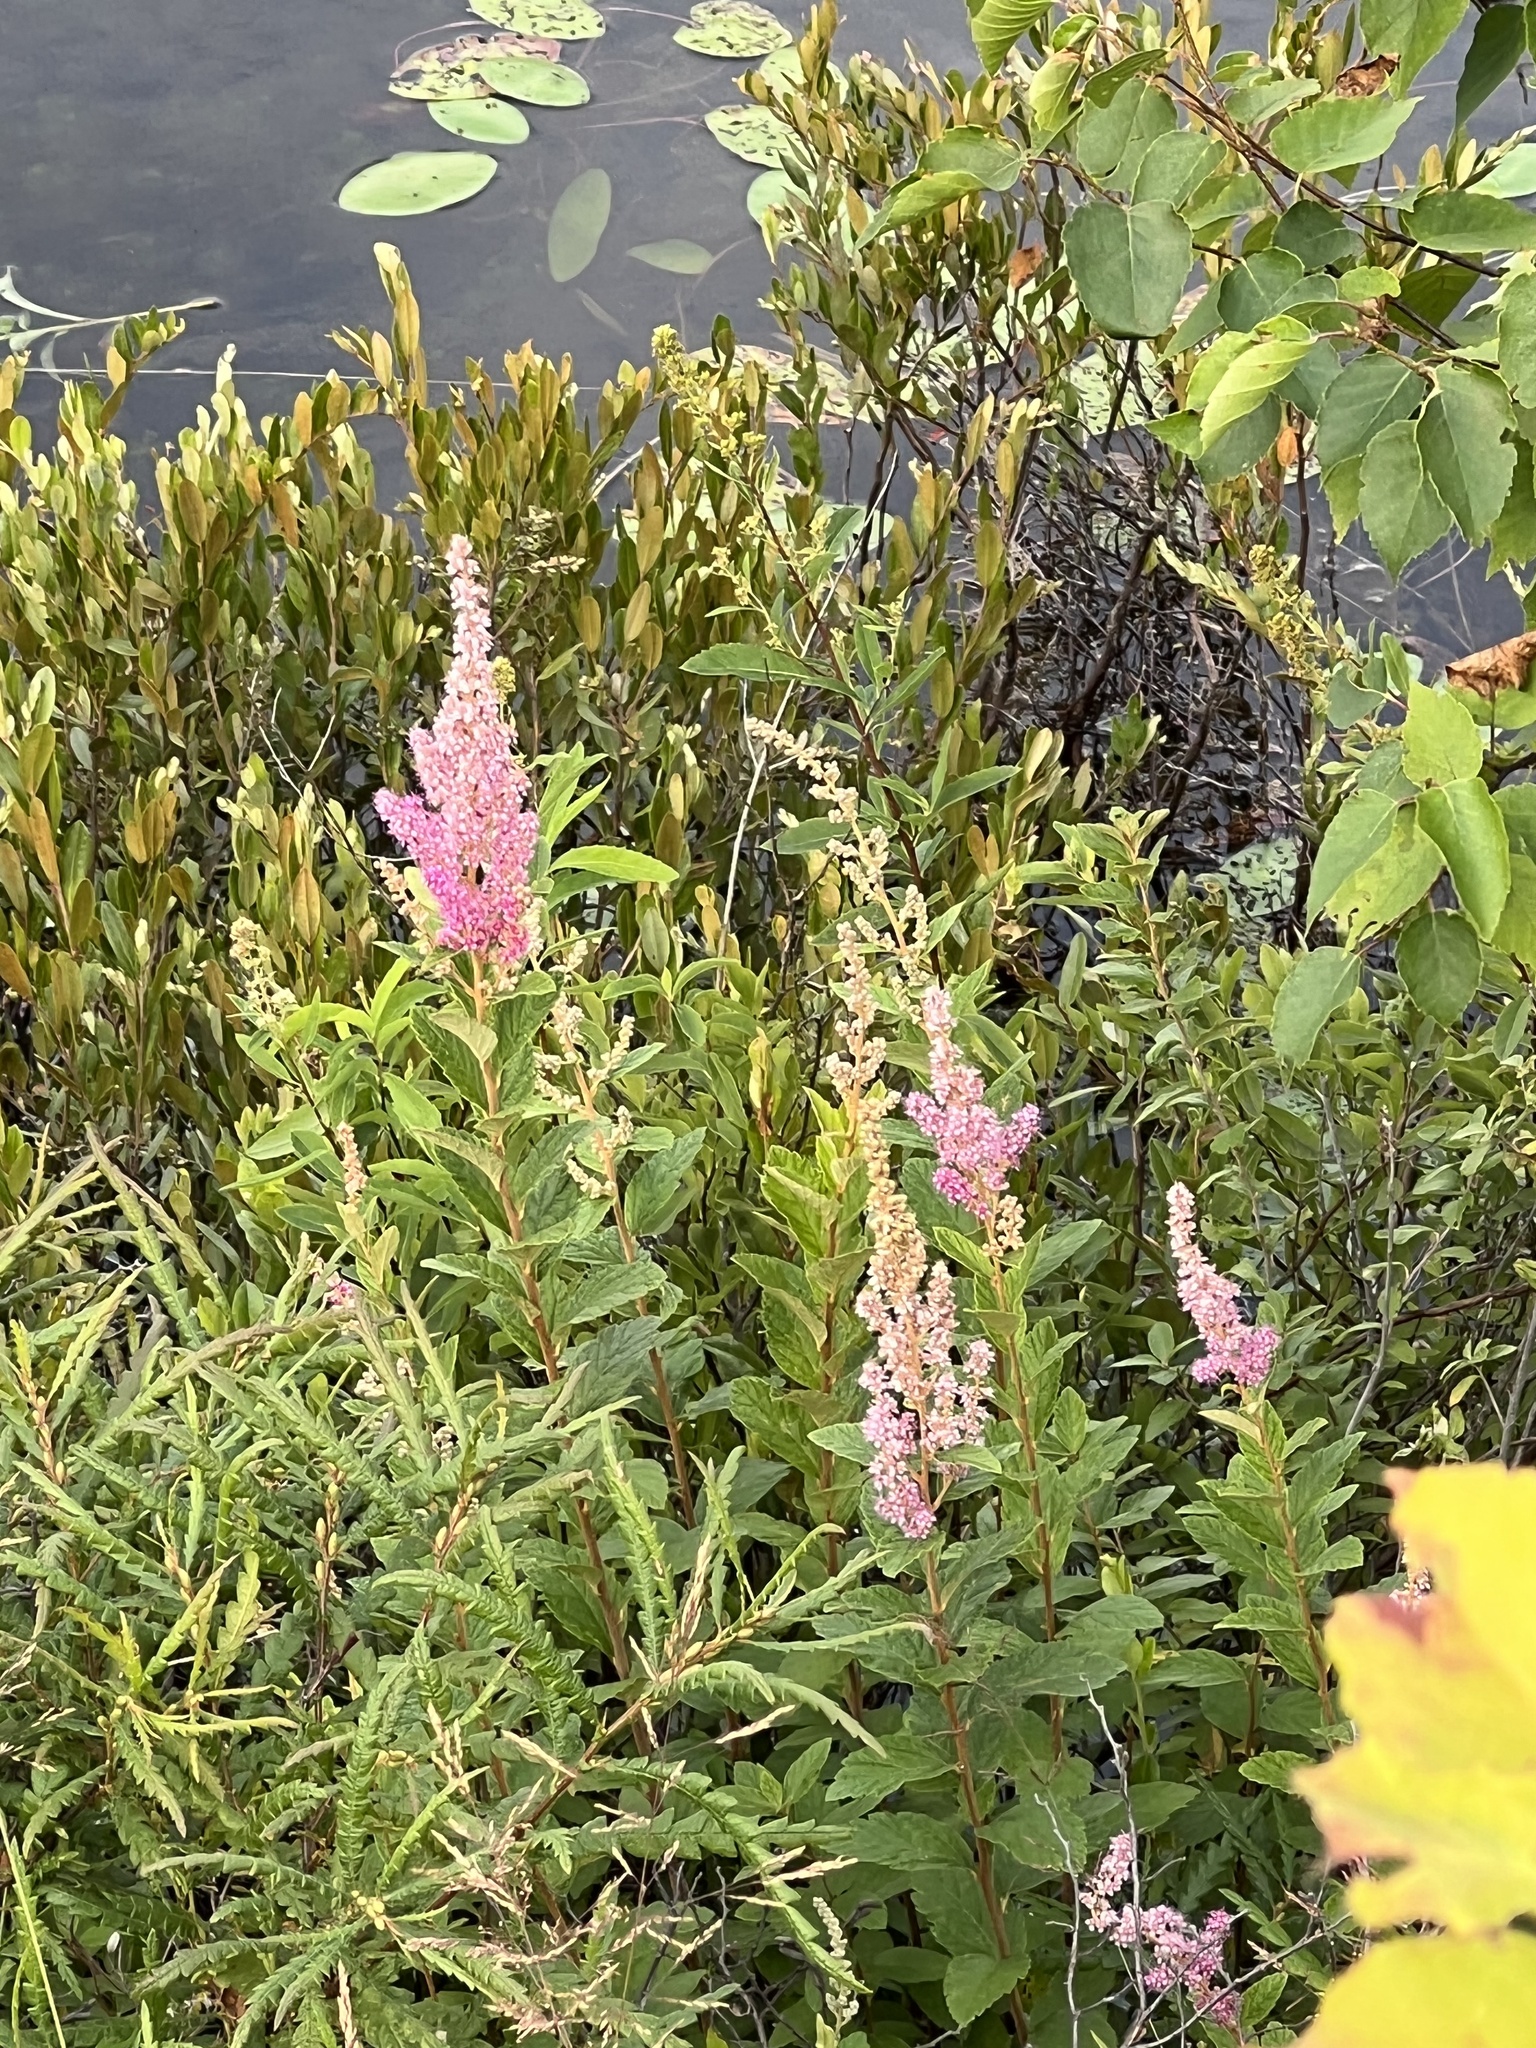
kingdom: Plantae
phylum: Tracheophyta
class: Magnoliopsida
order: Rosales
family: Rosaceae
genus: Spiraea
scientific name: Spiraea tomentosa
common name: Hardhack
